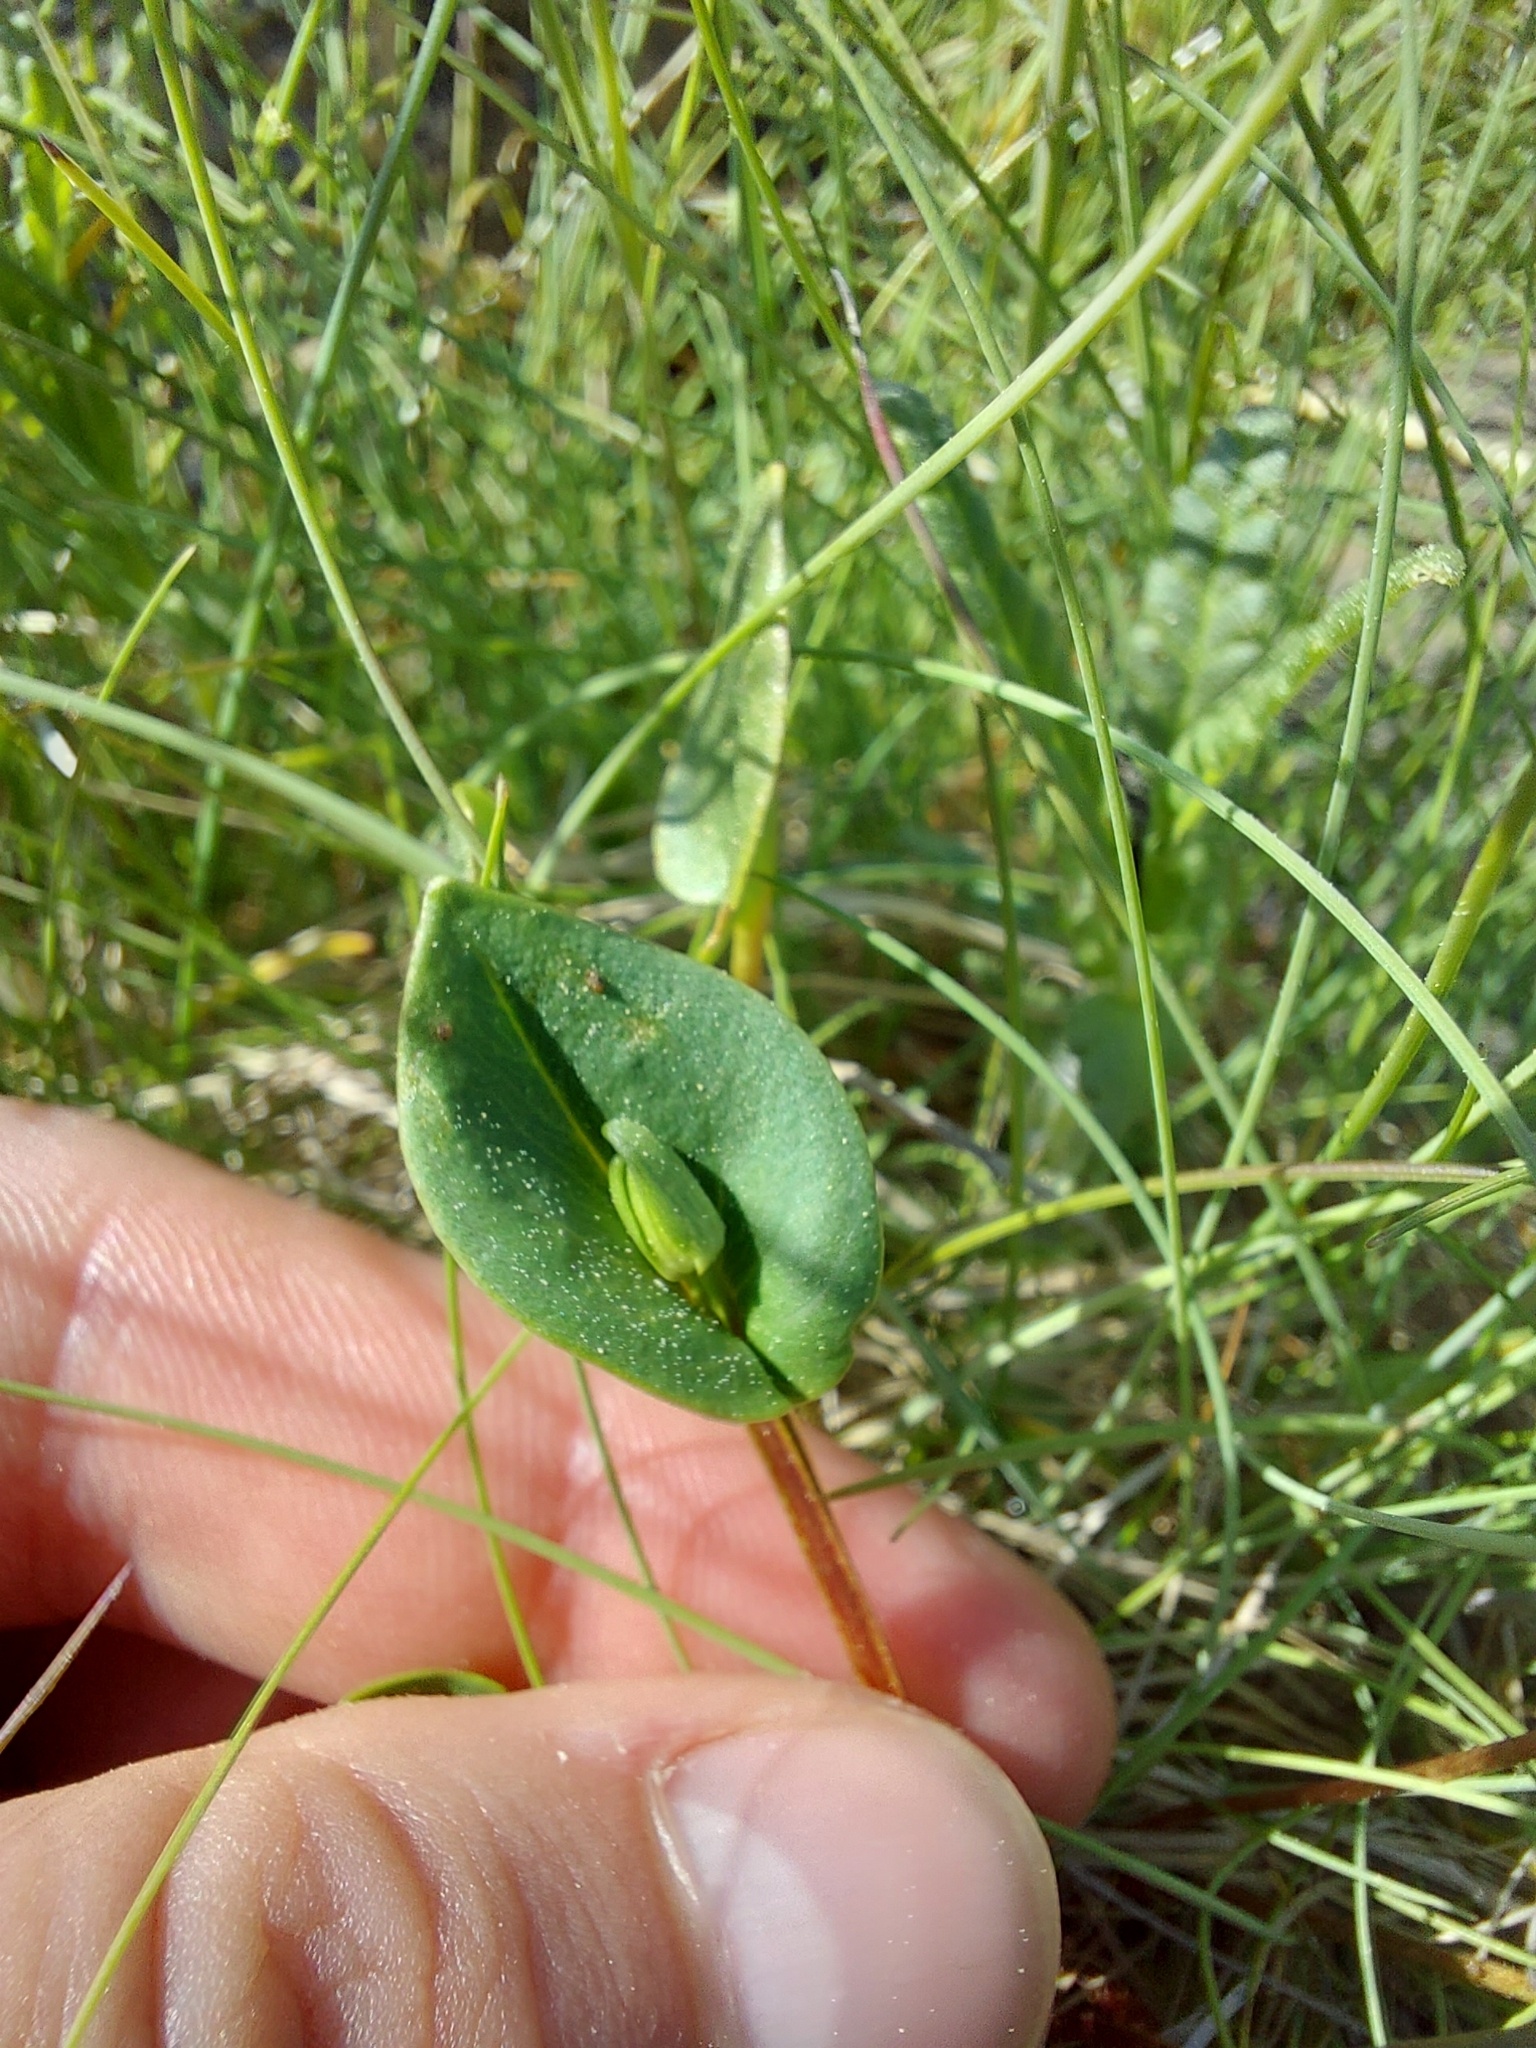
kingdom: Plantae
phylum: Tracheophyta
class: Magnoliopsida
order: Celastrales
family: Parnassiaceae
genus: Parnassia
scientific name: Parnassia palustris
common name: Grass-of-parnassus
